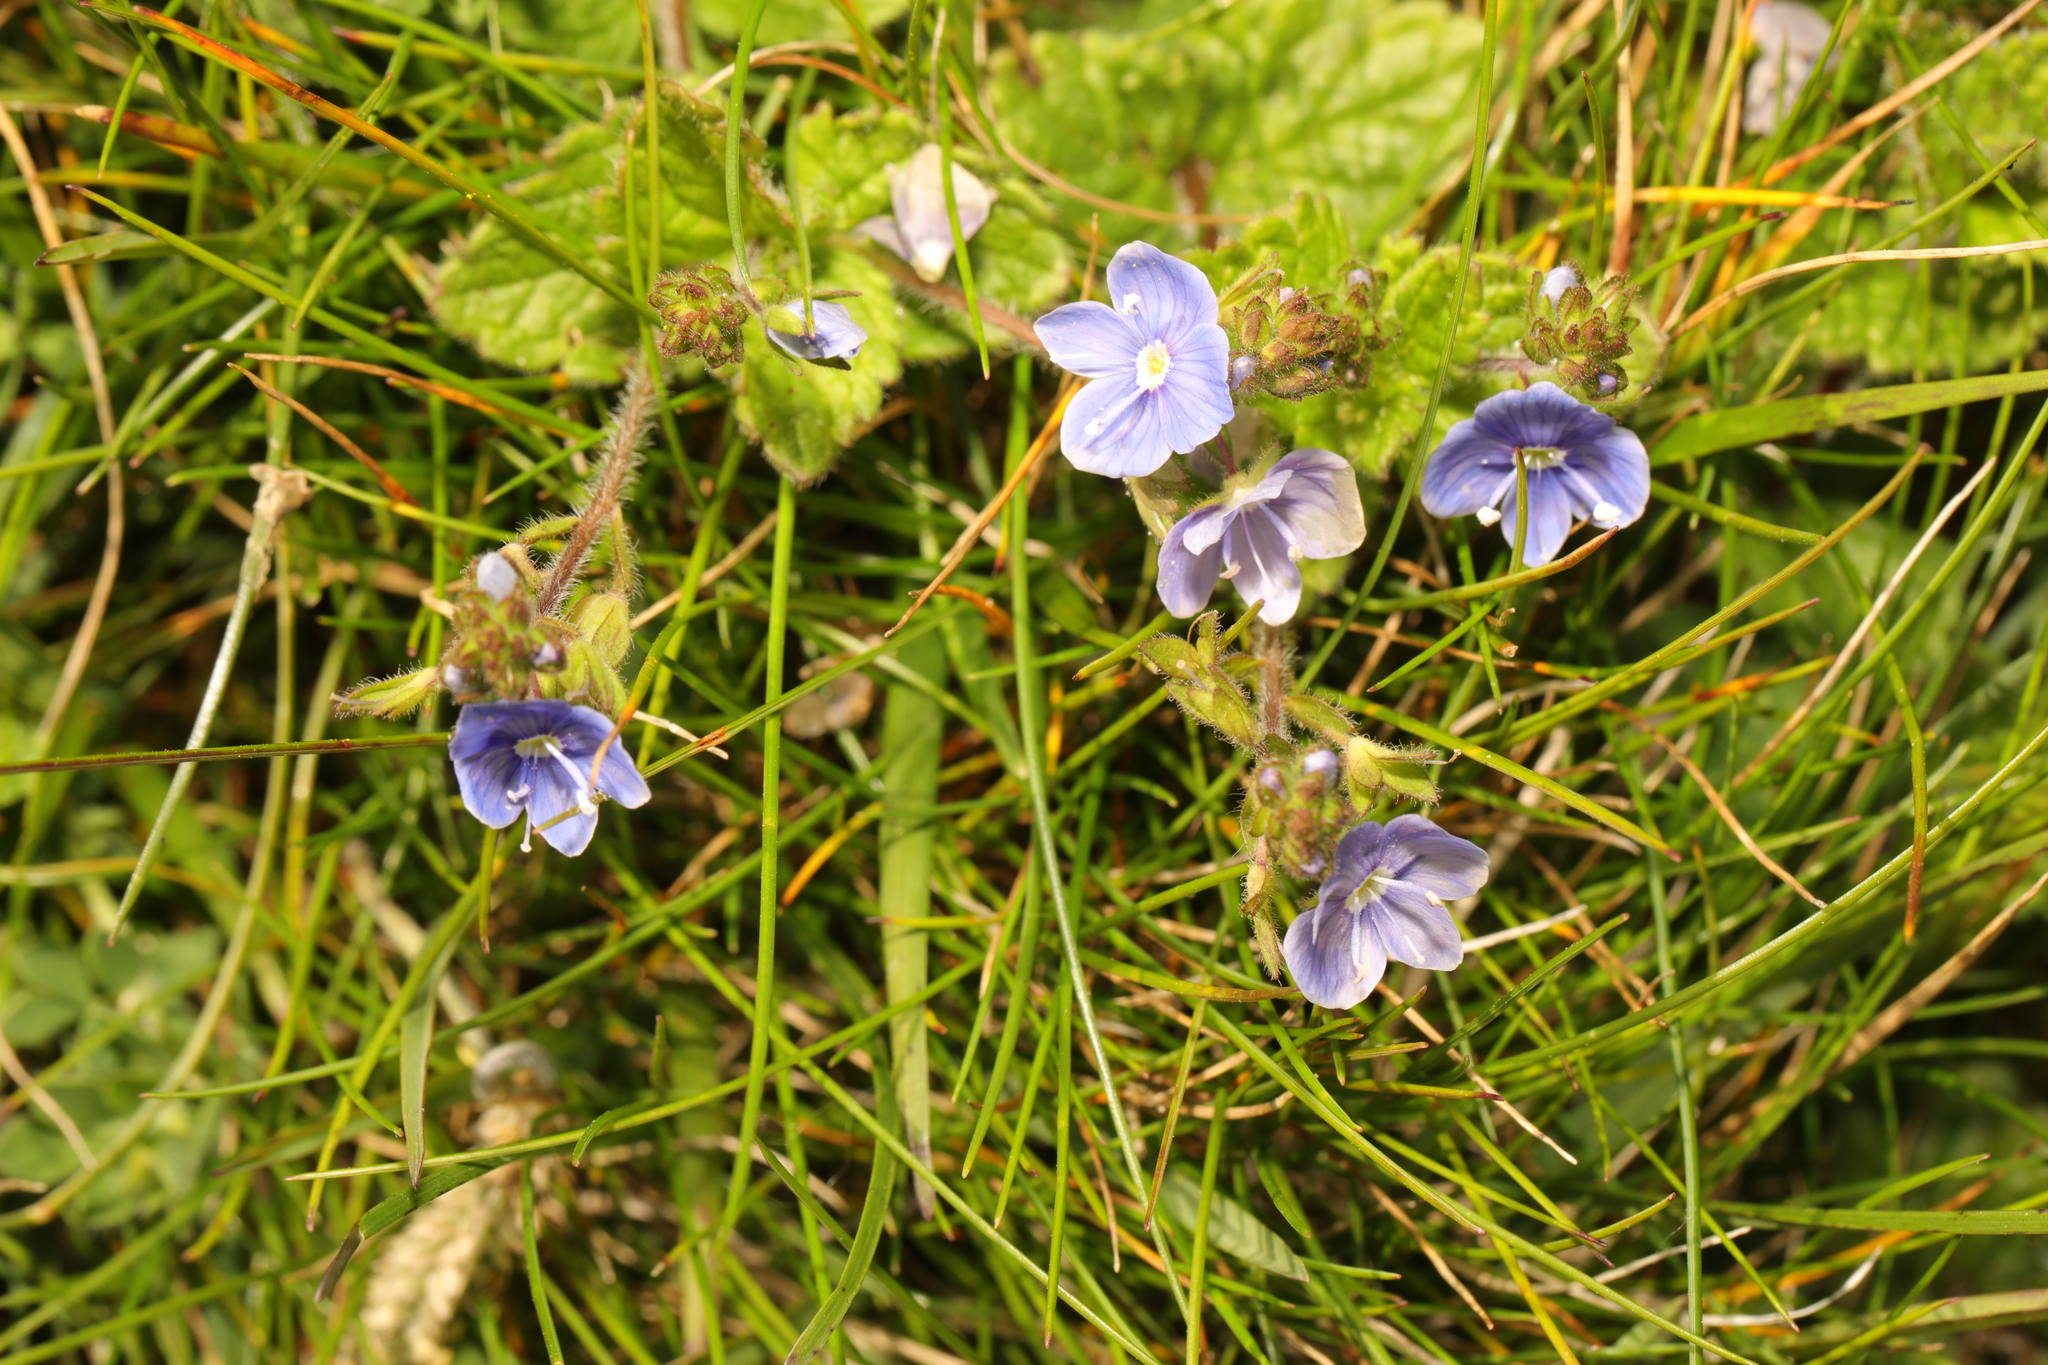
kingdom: Plantae
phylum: Tracheophyta
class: Magnoliopsida
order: Lamiales
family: Plantaginaceae
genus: Veronica
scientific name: Veronica chamaedrys
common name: Germander speedwell
